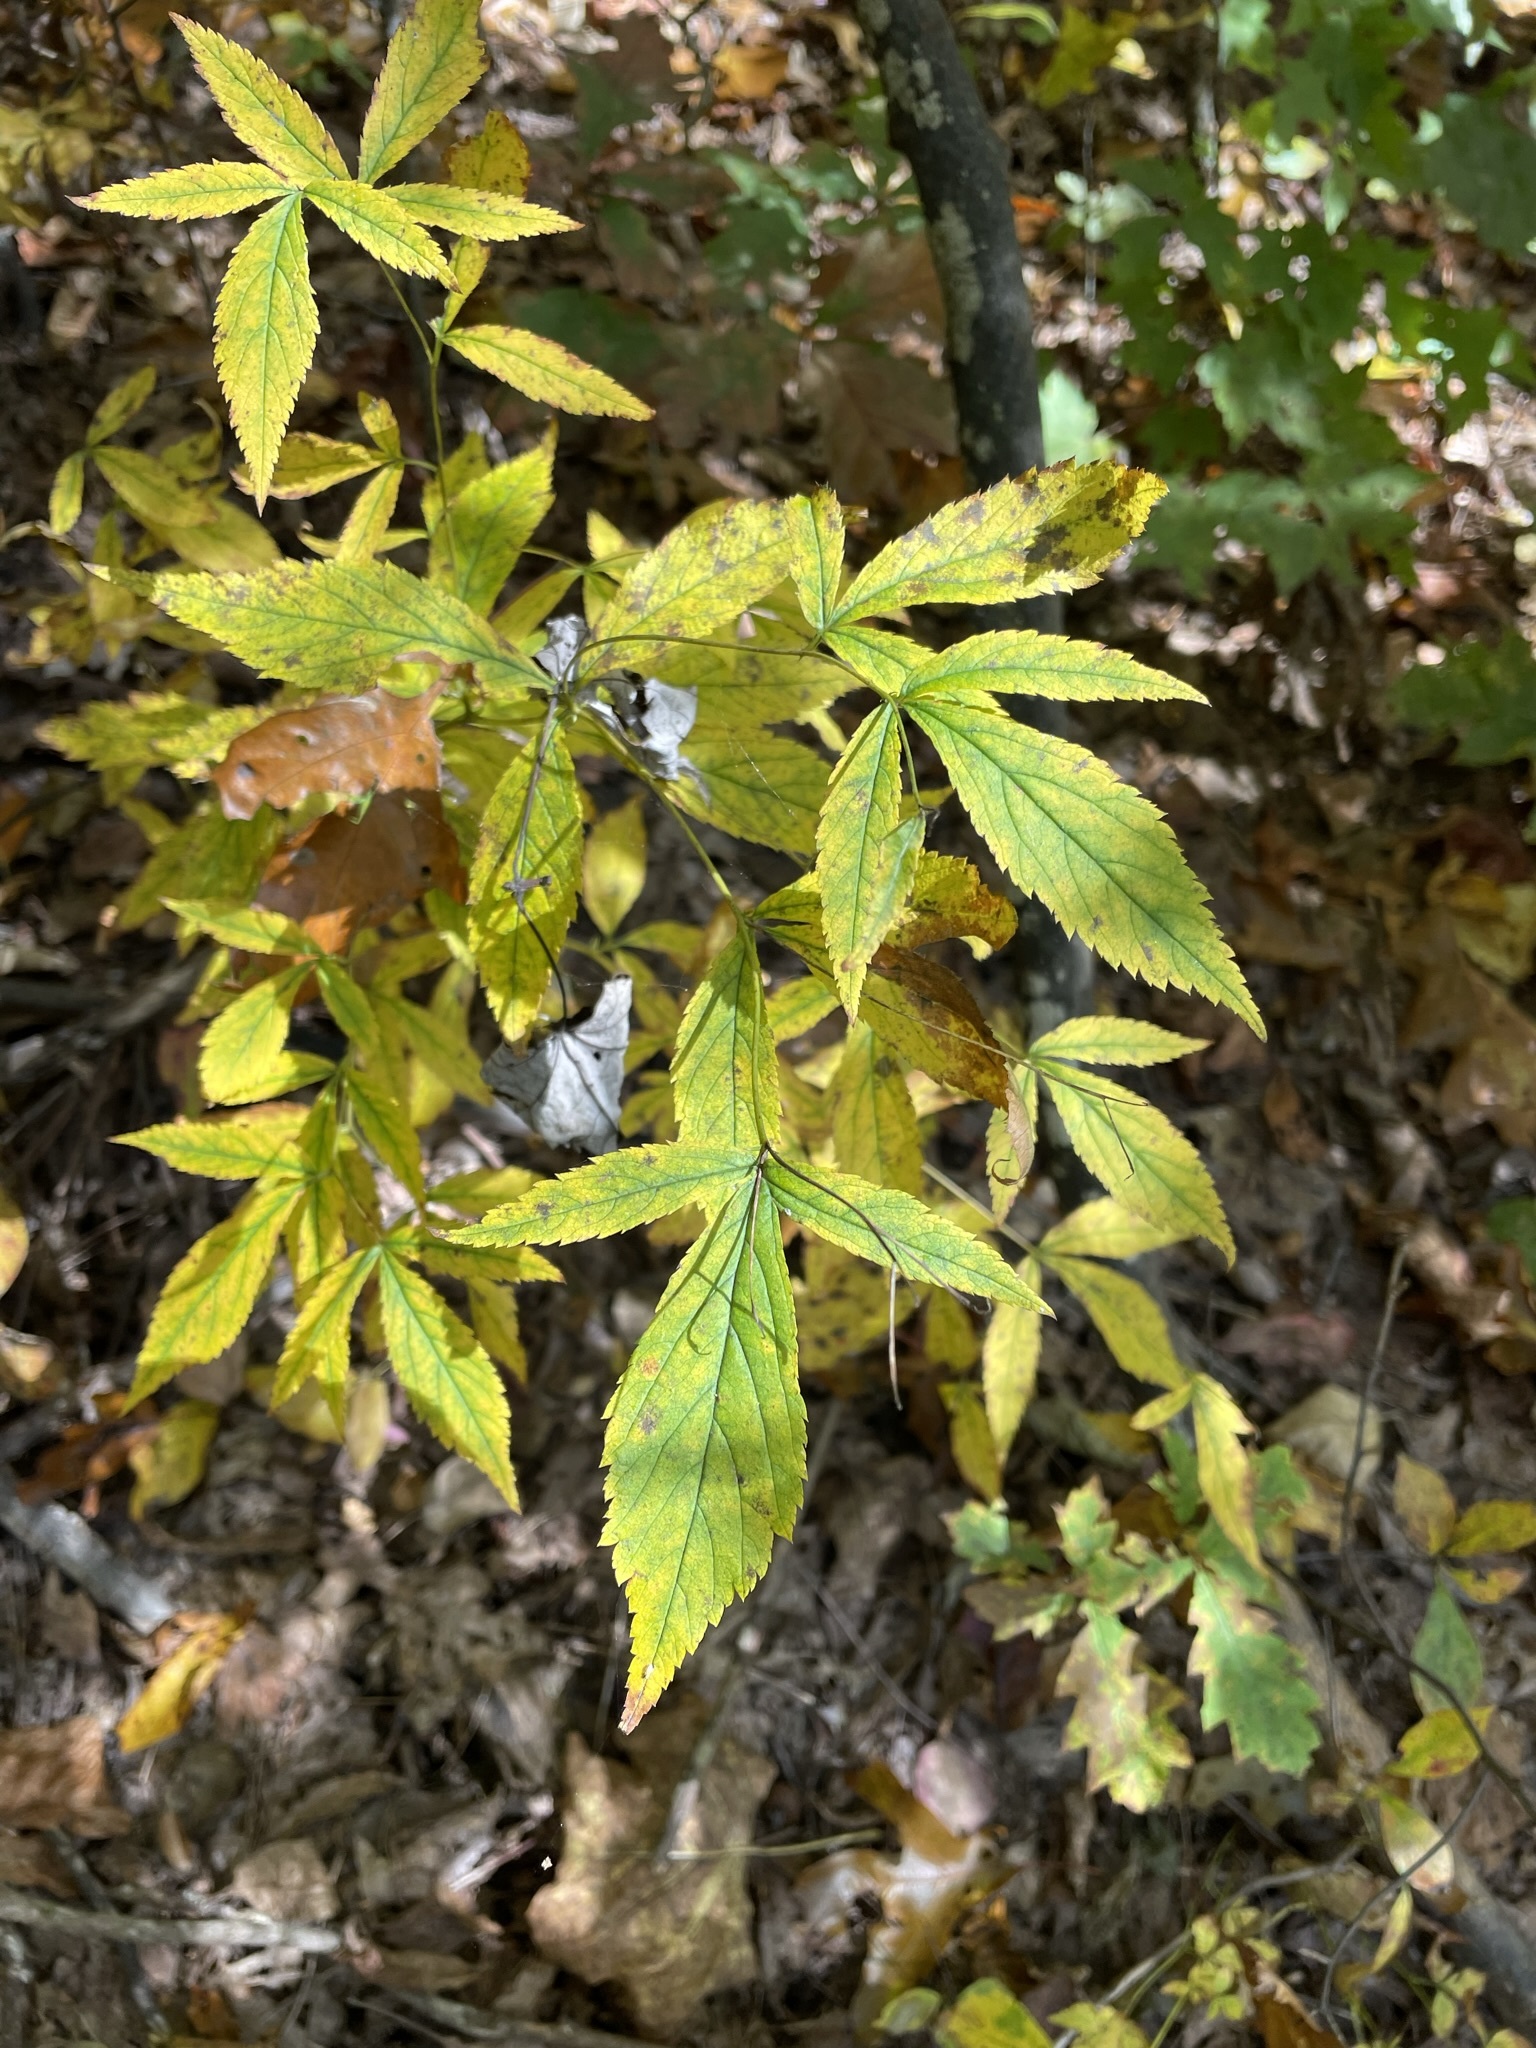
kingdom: Plantae
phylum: Tracheophyta
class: Magnoliopsida
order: Rosales
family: Rosaceae
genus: Gillenia
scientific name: Gillenia trifoliata
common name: Bowman's-root
